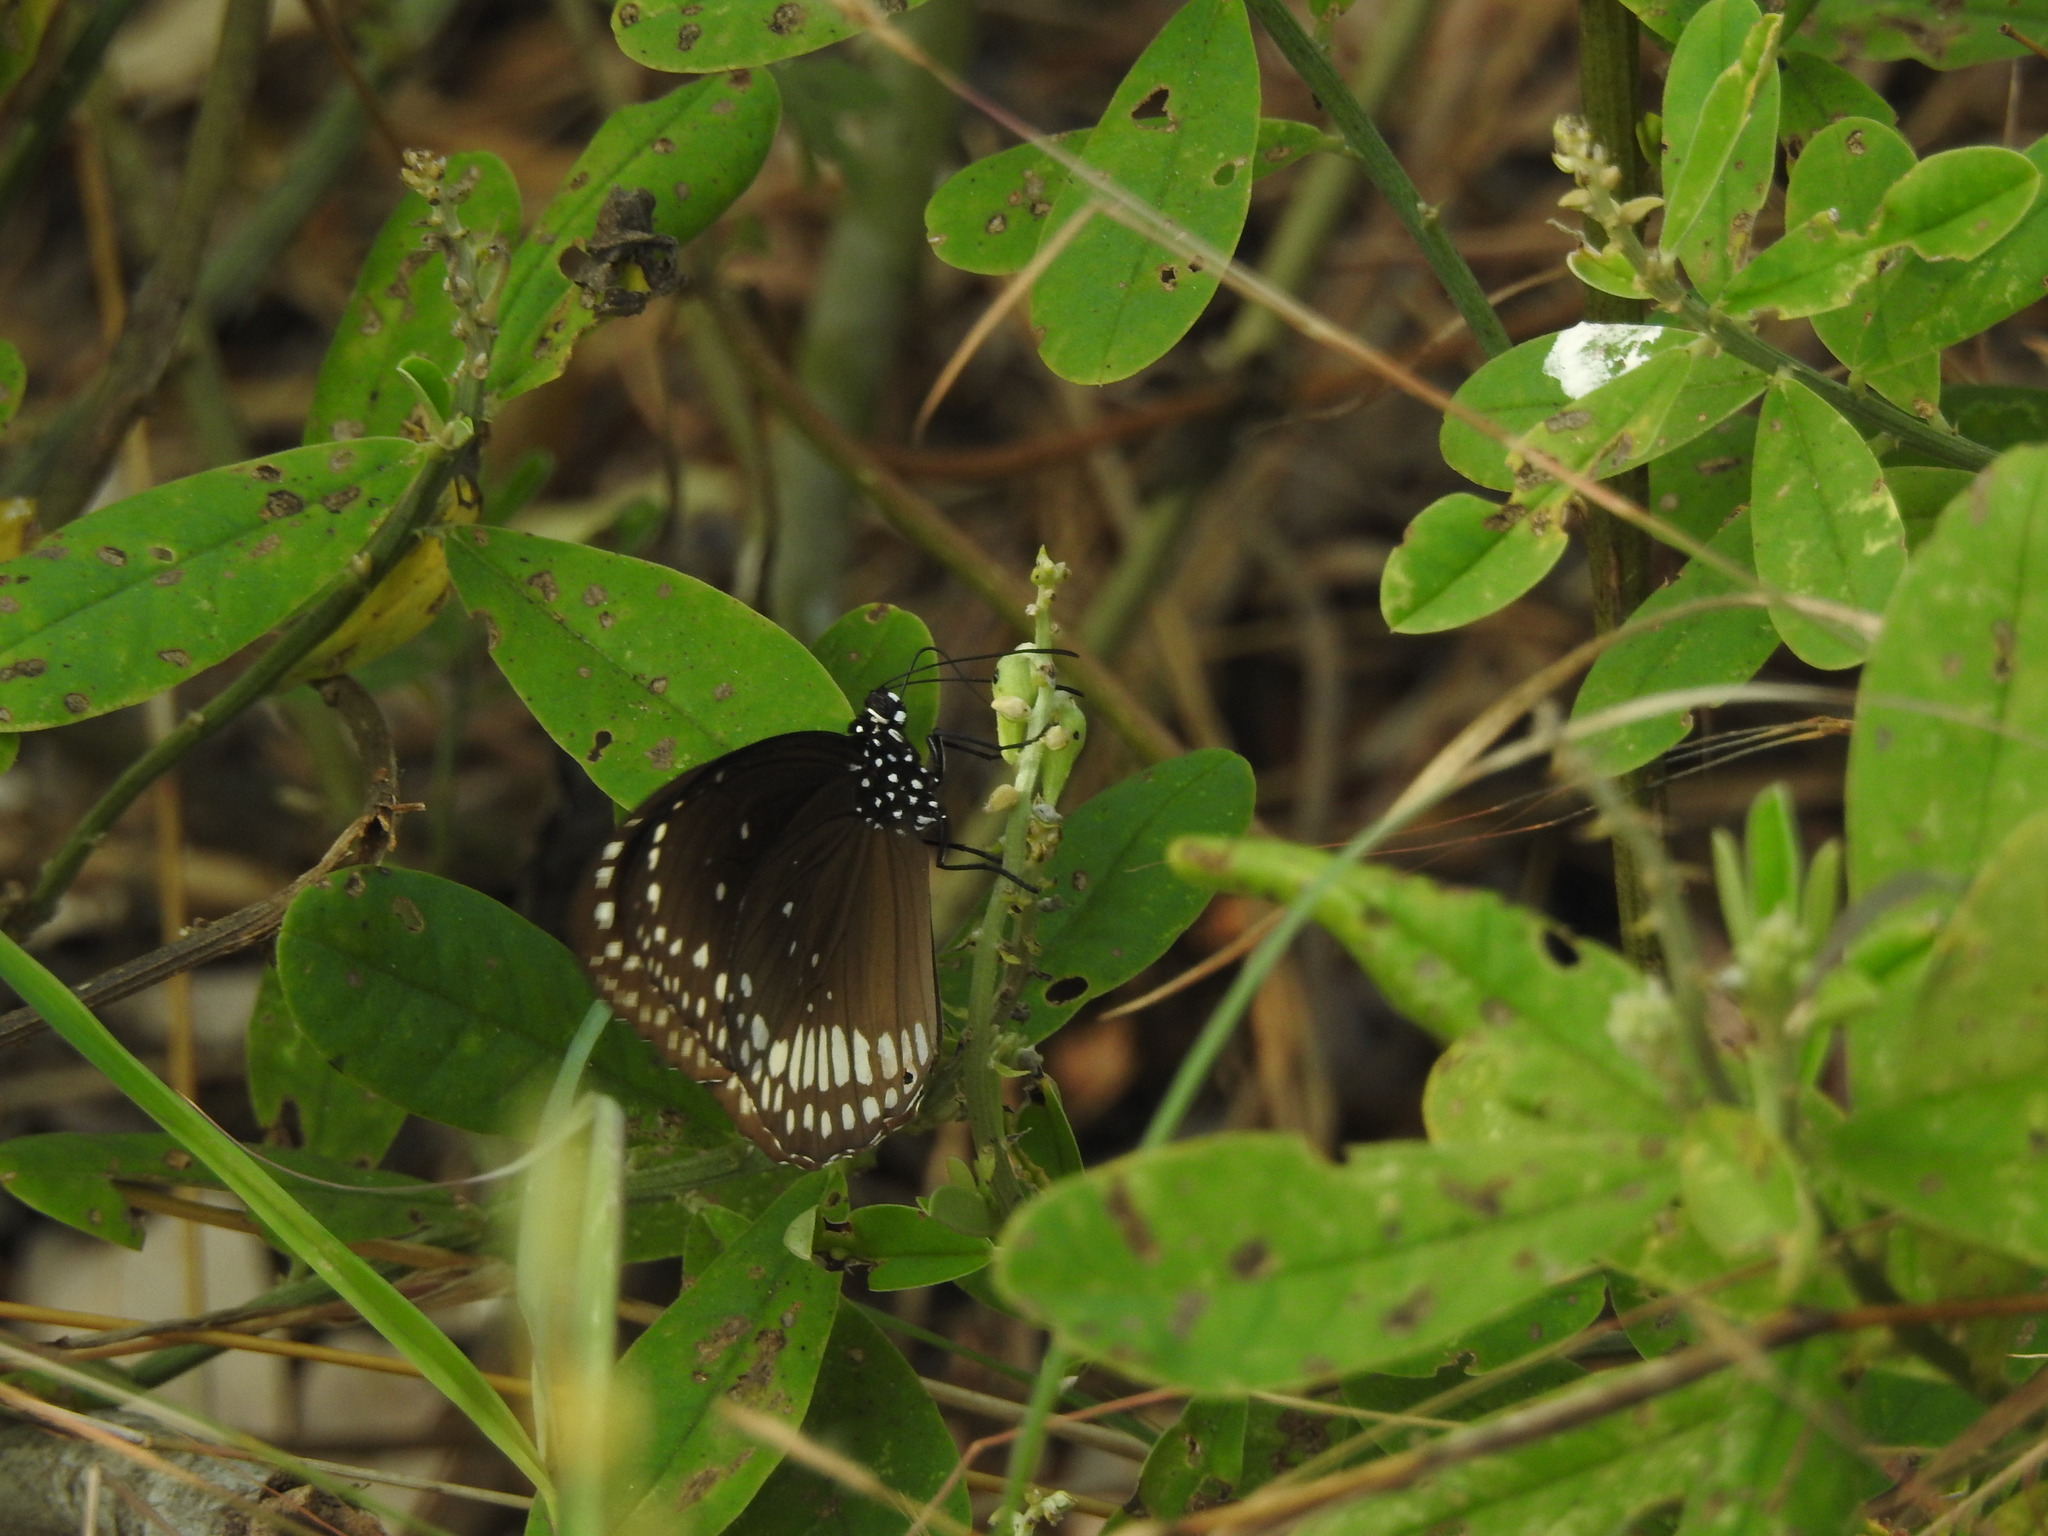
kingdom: Animalia
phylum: Arthropoda
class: Insecta
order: Lepidoptera
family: Nymphalidae
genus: Euploea
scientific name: Euploea core
